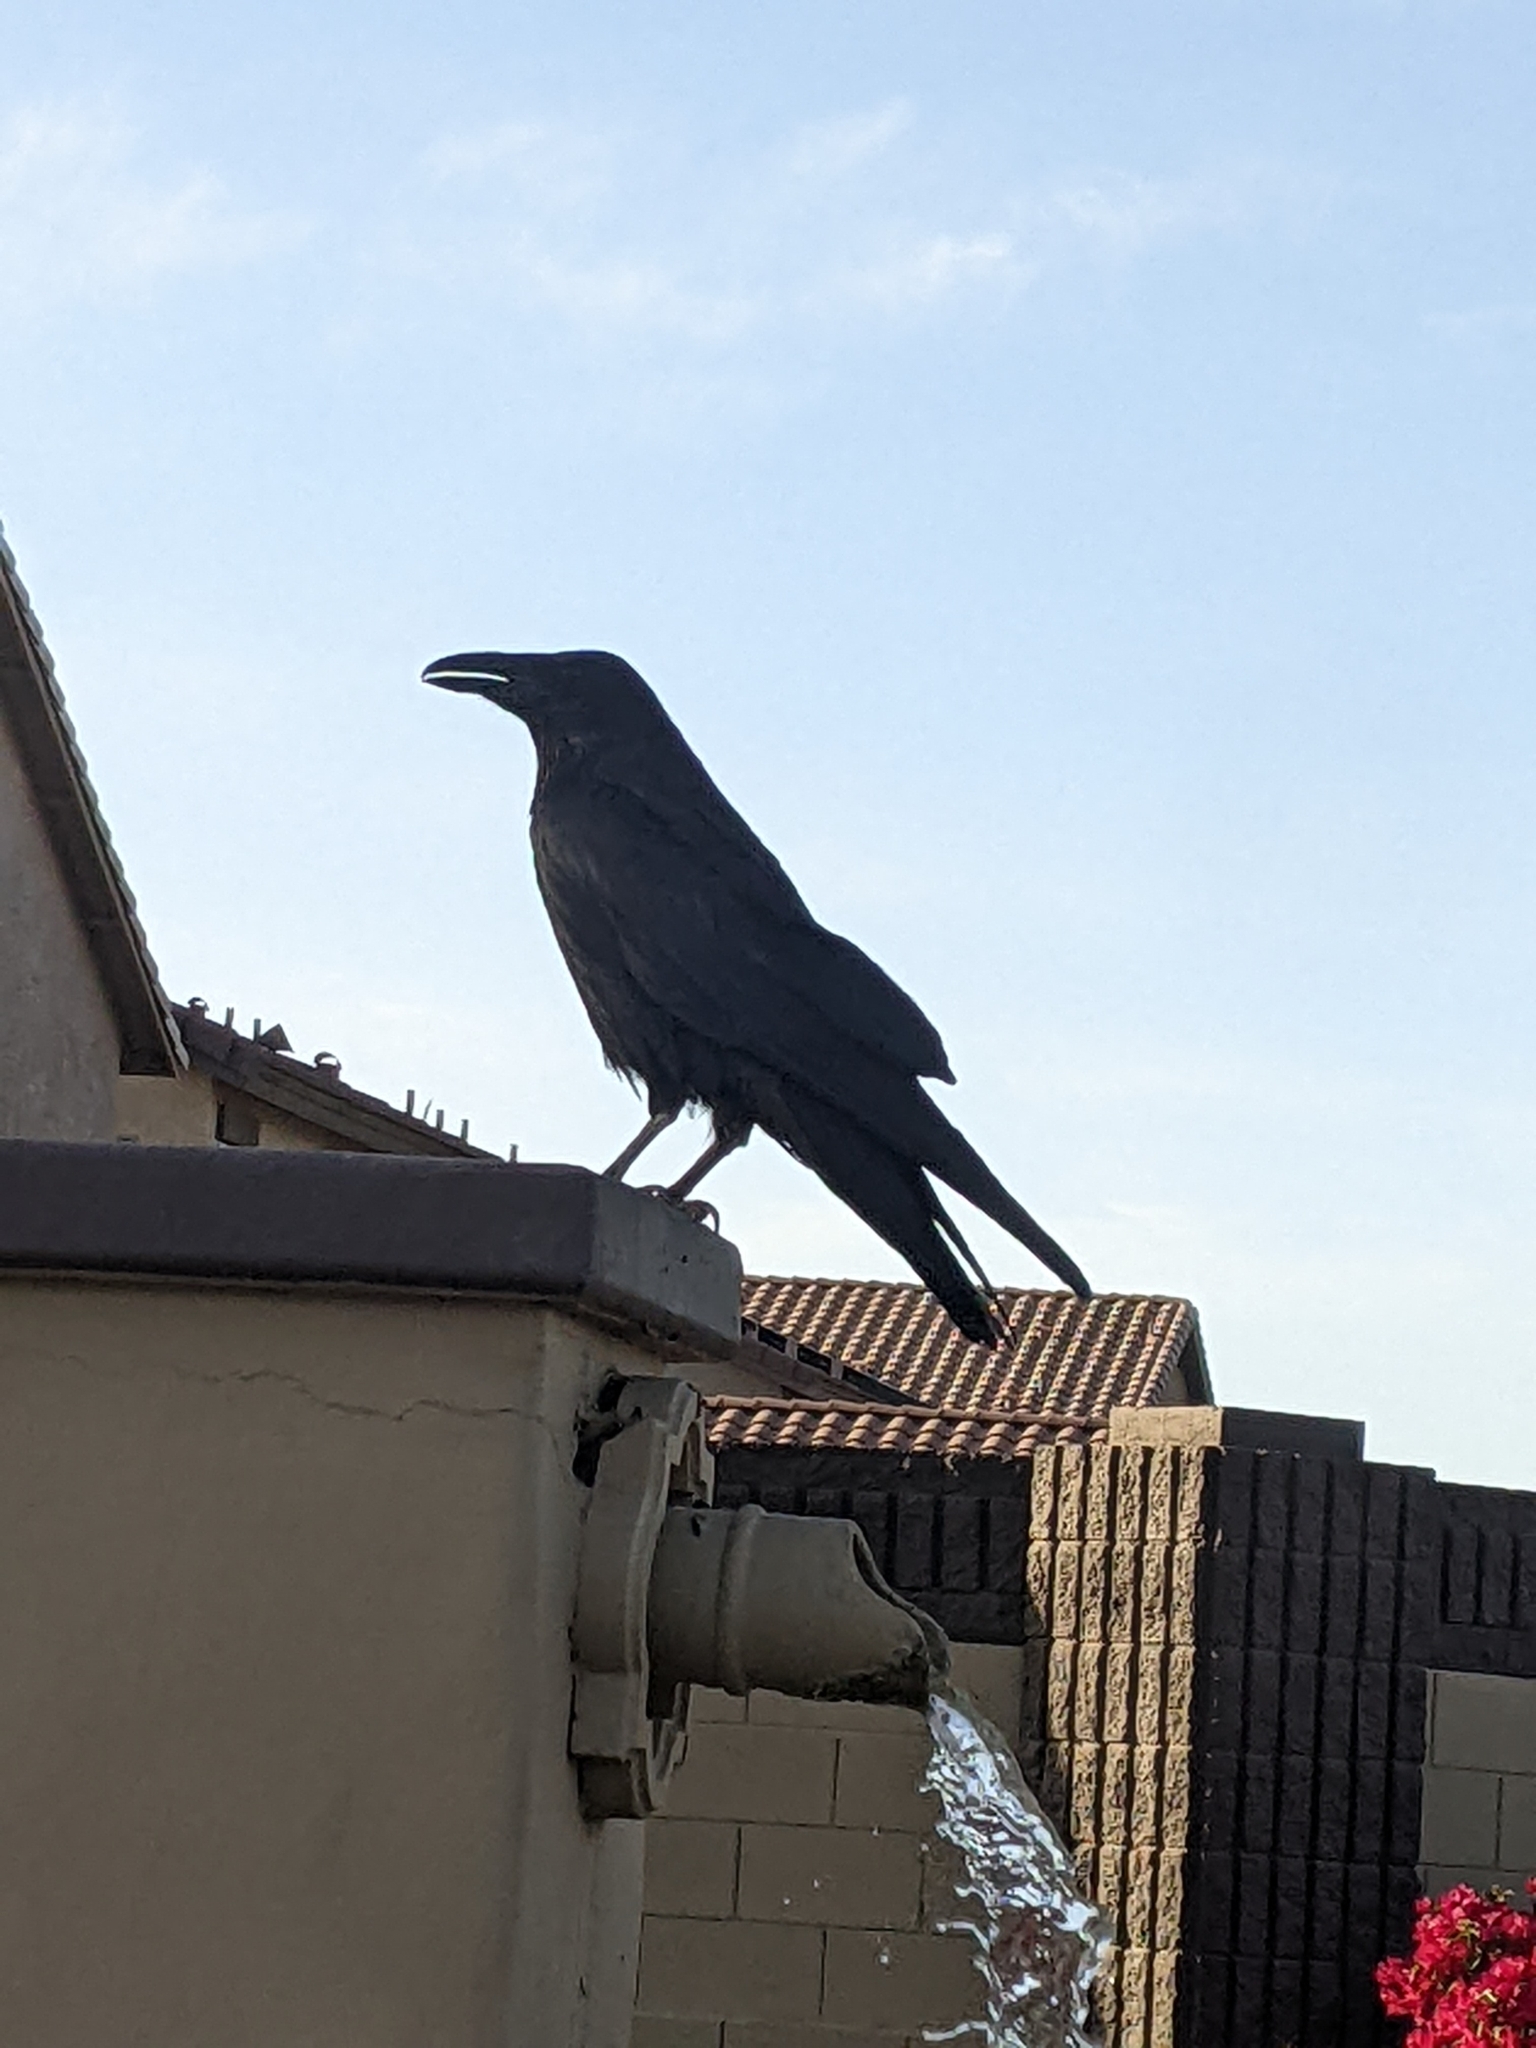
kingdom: Animalia
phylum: Chordata
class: Aves
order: Passeriformes
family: Corvidae
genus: Corvus
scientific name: Corvus corax
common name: Common raven
